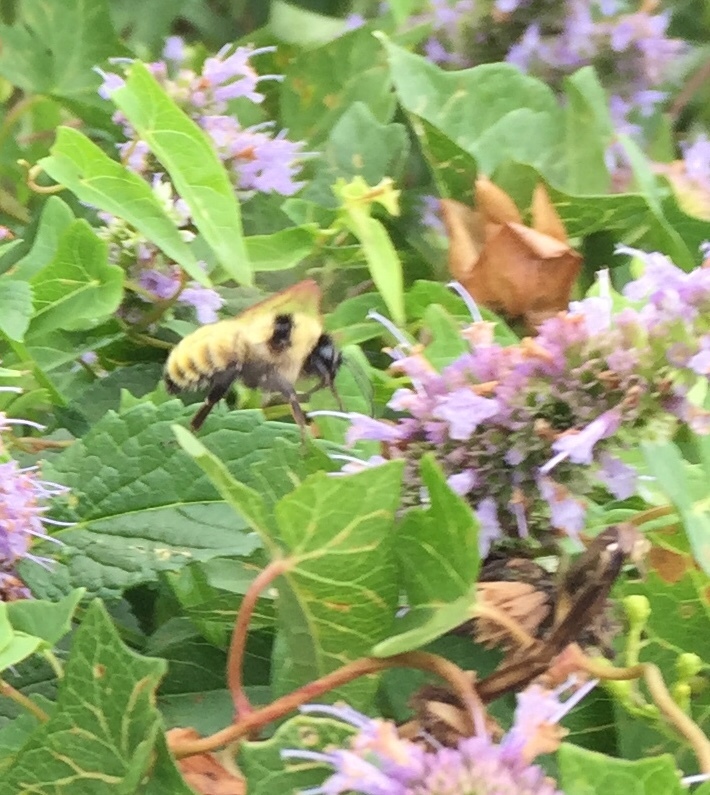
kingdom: Animalia
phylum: Arthropoda
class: Insecta
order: Hymenoptera
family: Apidae
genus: Bombus
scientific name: Bombus fervidus
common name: Yellow bumble bee
